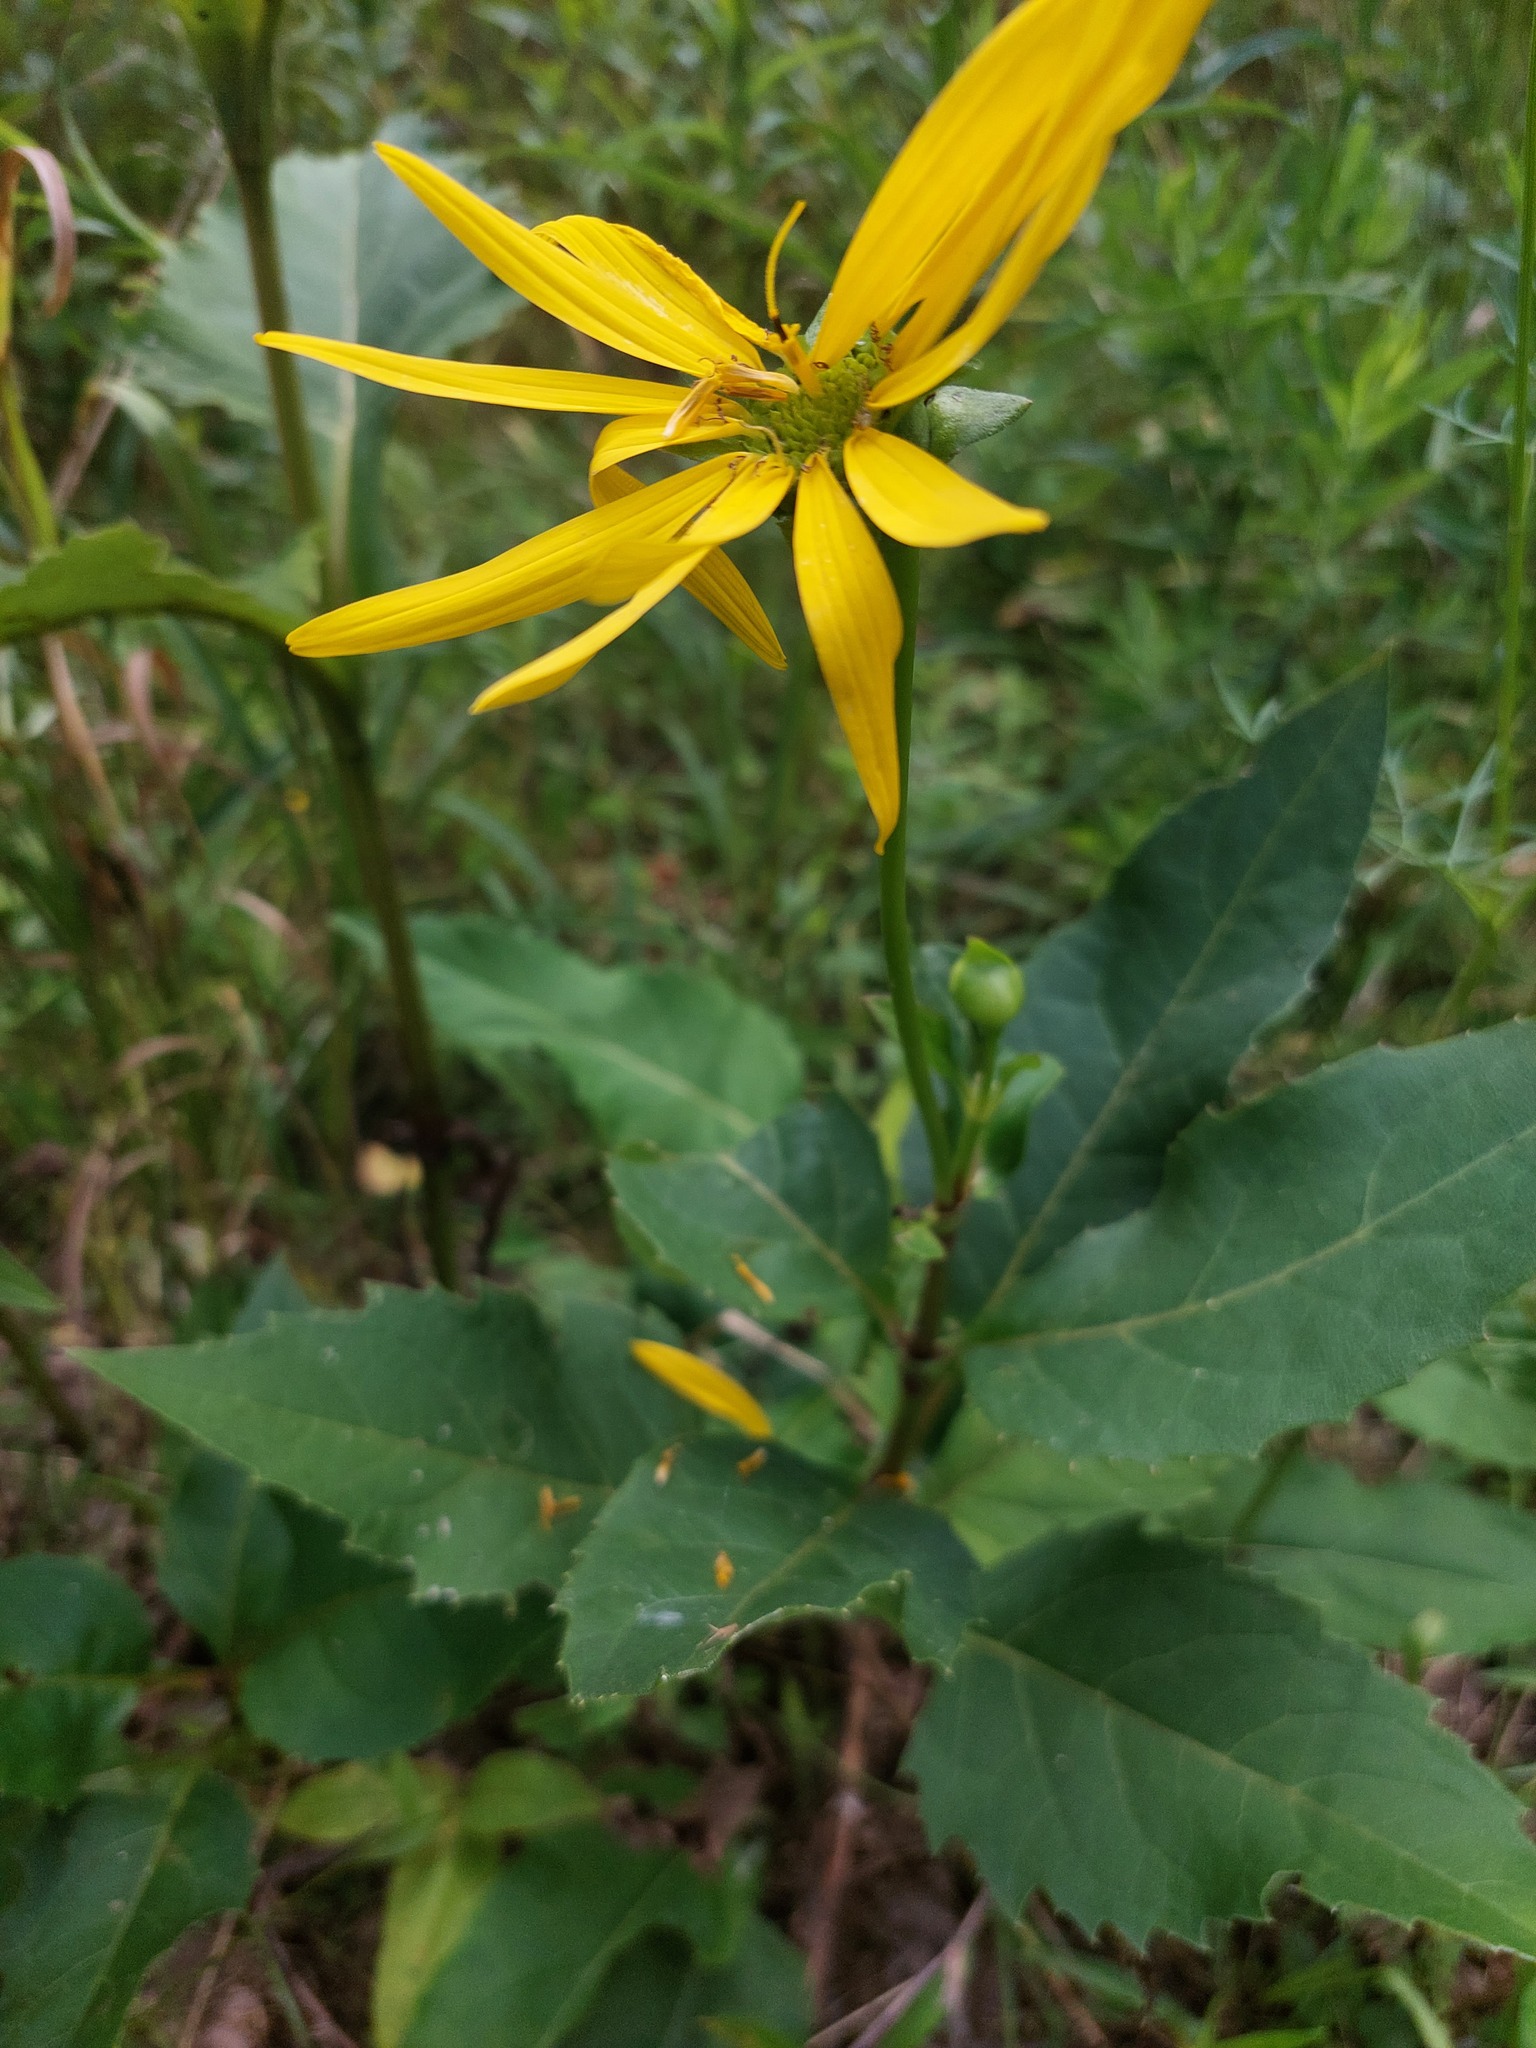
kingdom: Plantae
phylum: Tracheophyta
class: Magnoliopsida
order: Asterales
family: Asteraceae
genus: Silphium
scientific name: Silphium perfoliatum
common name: Cup-plant
